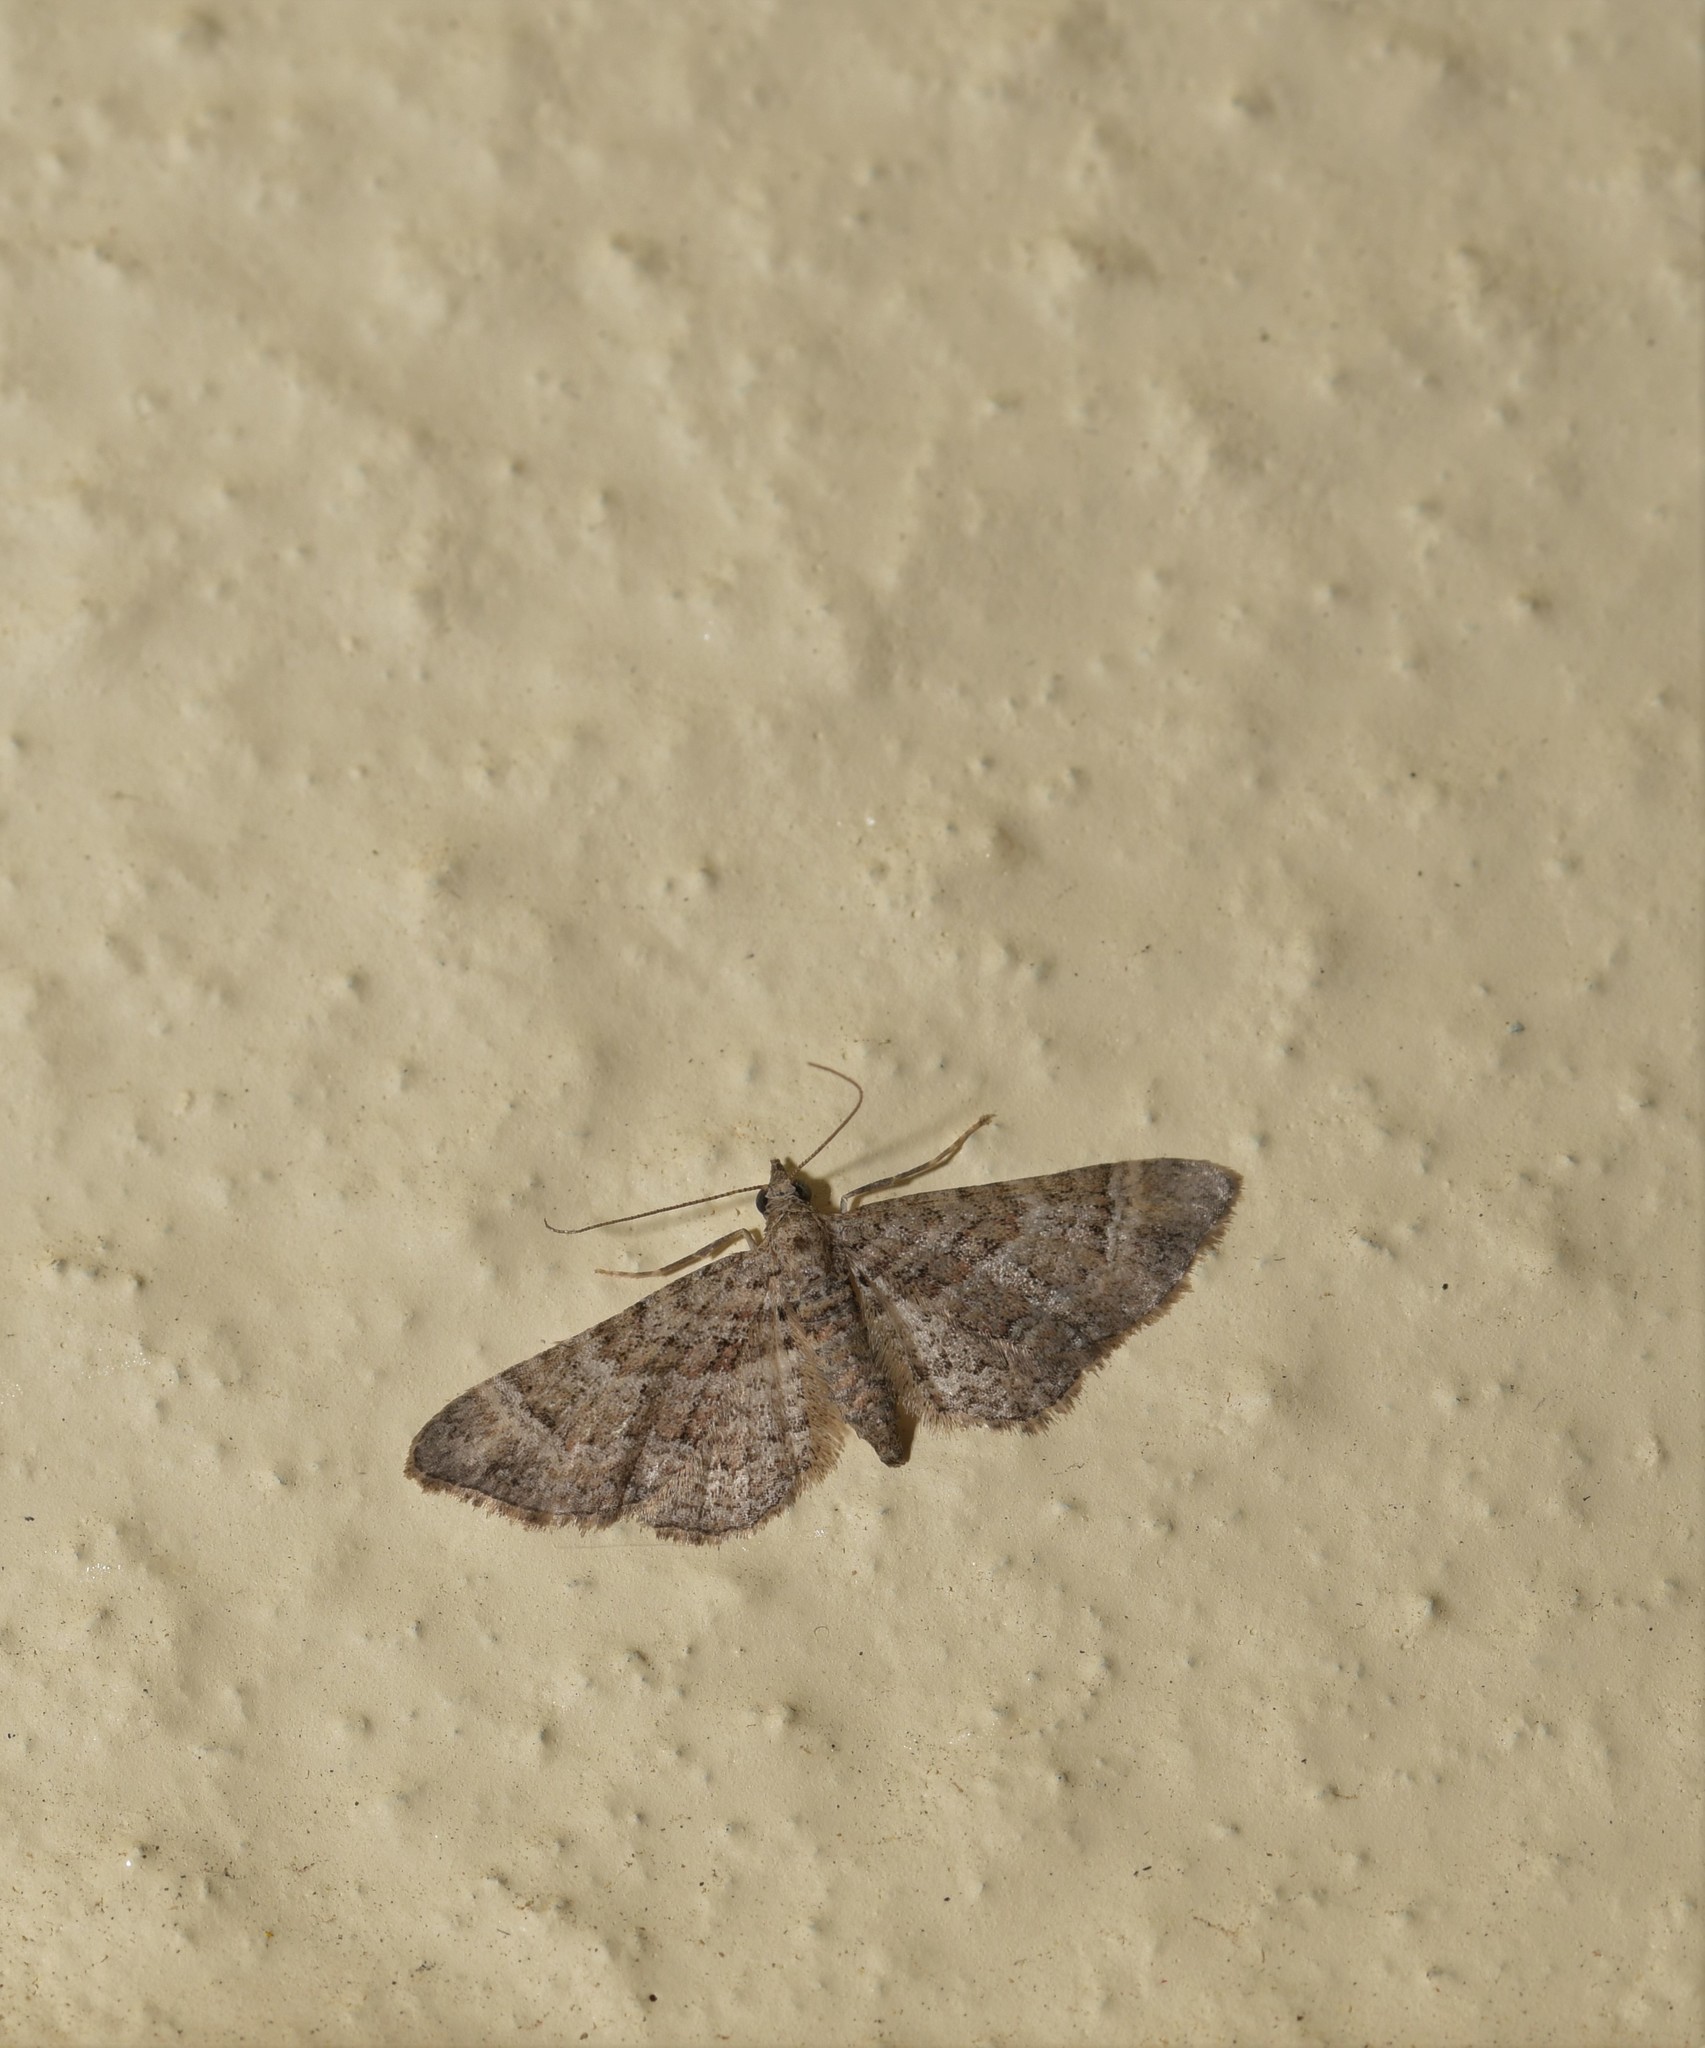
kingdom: Animalia
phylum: Arthropoda
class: Insecta
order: Lepidoptera
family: Geometridae
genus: Gymnoscelis
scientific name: Gymnoscelis rufifasciata
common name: Double-striped pug
